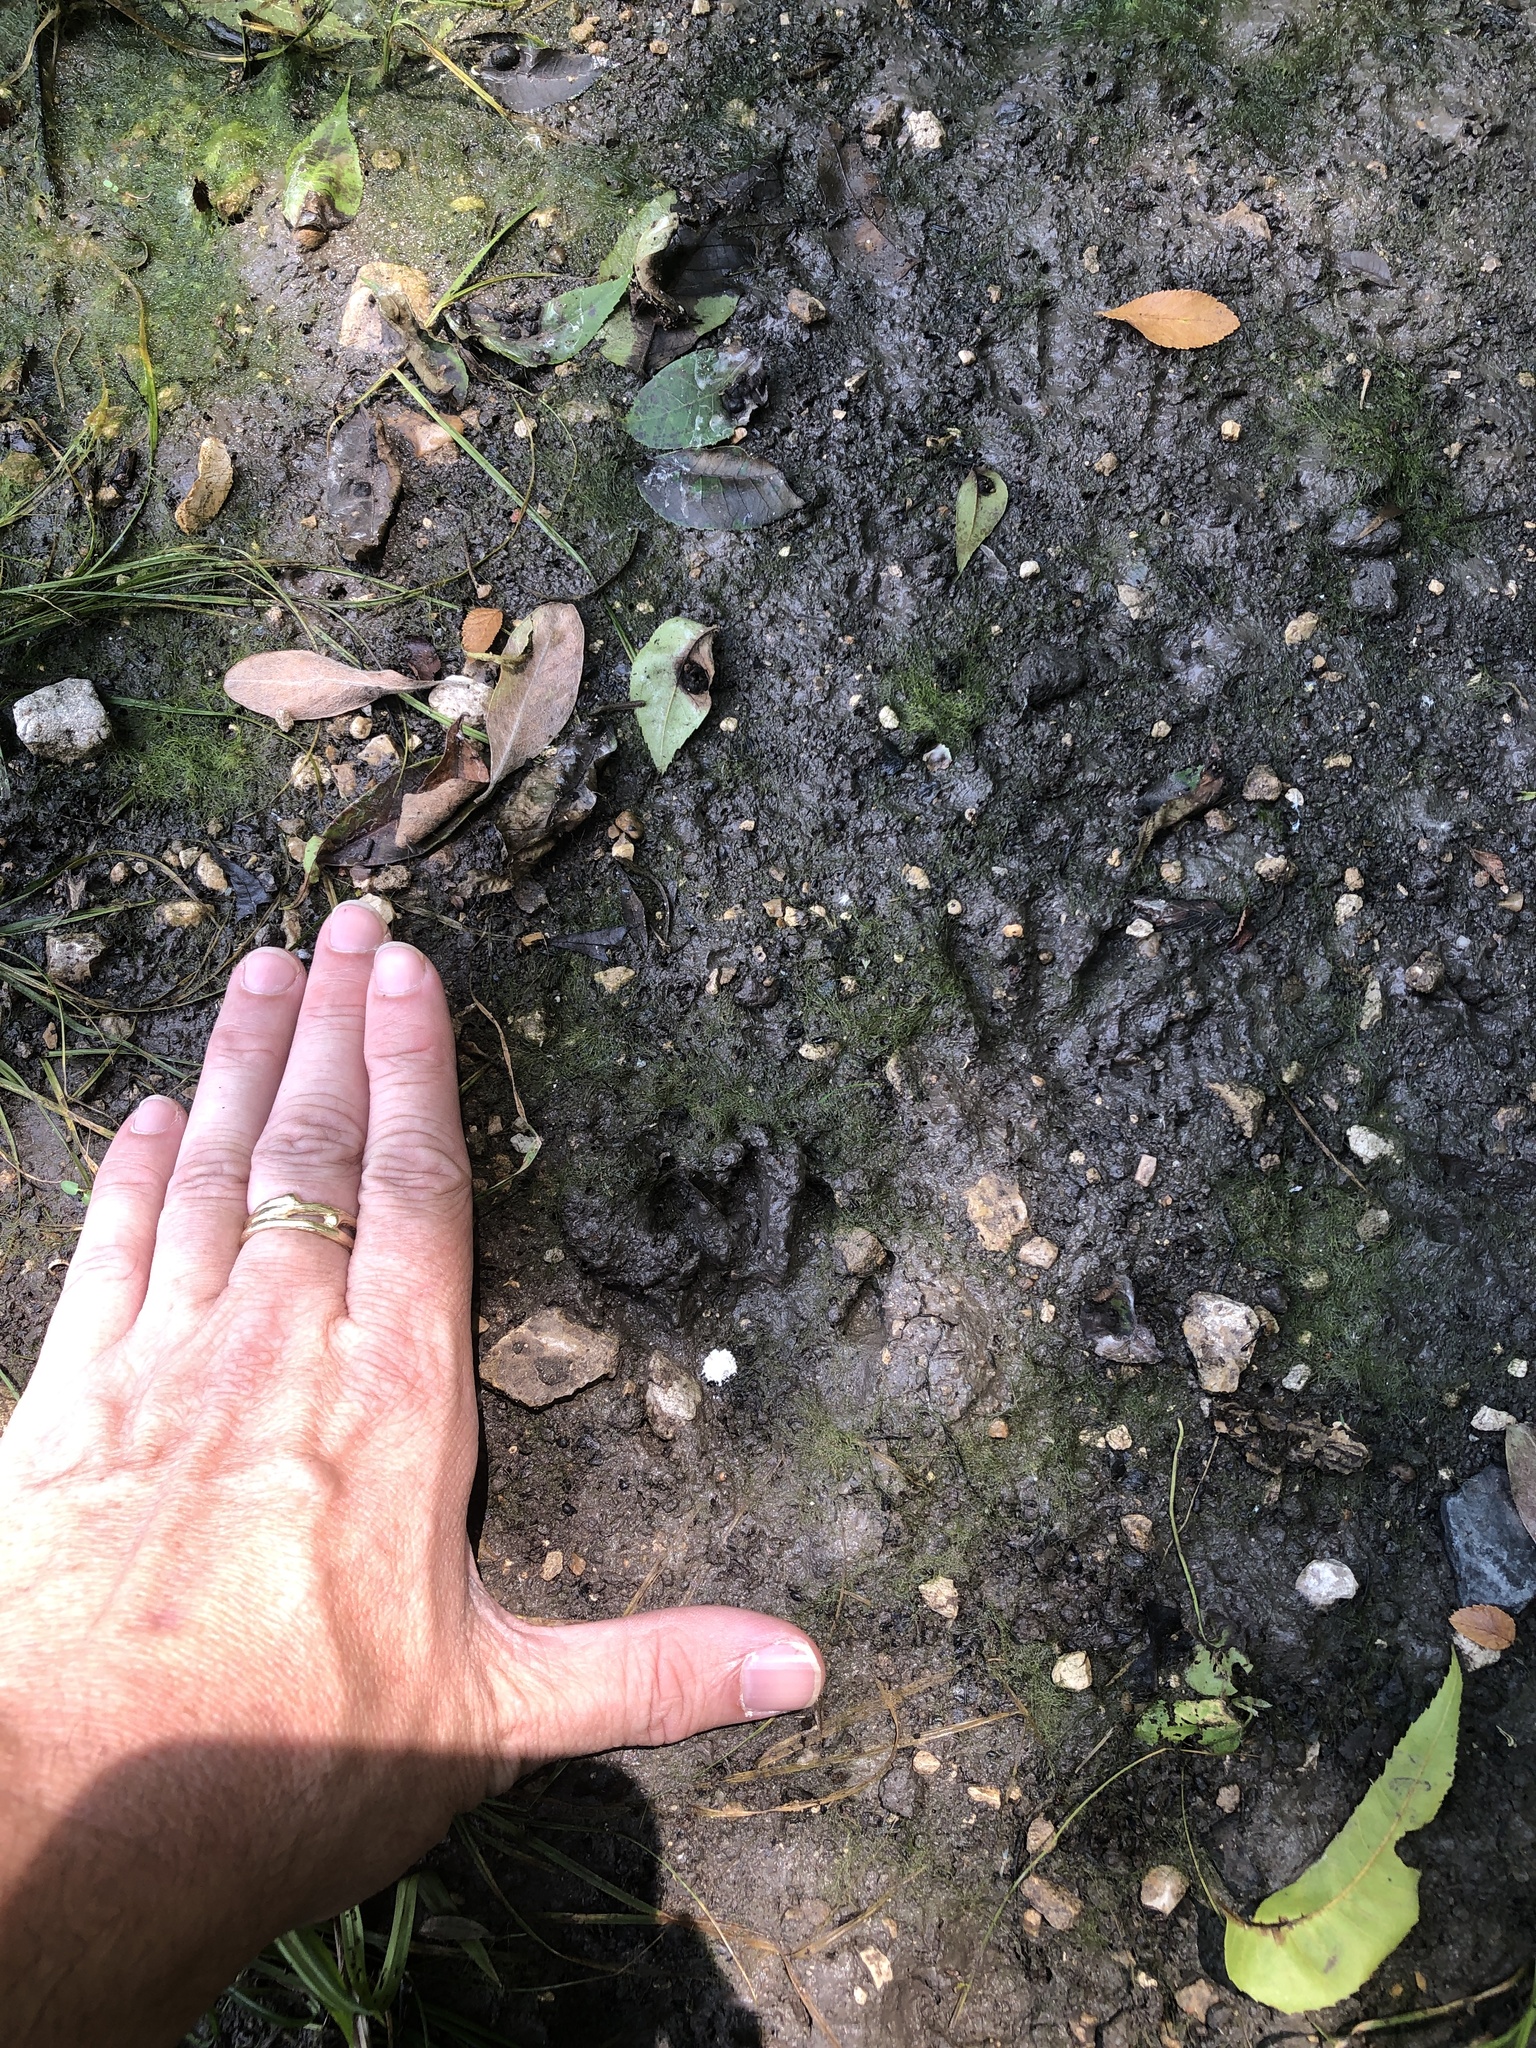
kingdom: Animalia
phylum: Chordata
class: Mammalia
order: Carnivora
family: Procyonidae
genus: Procyon
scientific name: Procyon lotor
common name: Raccoon
